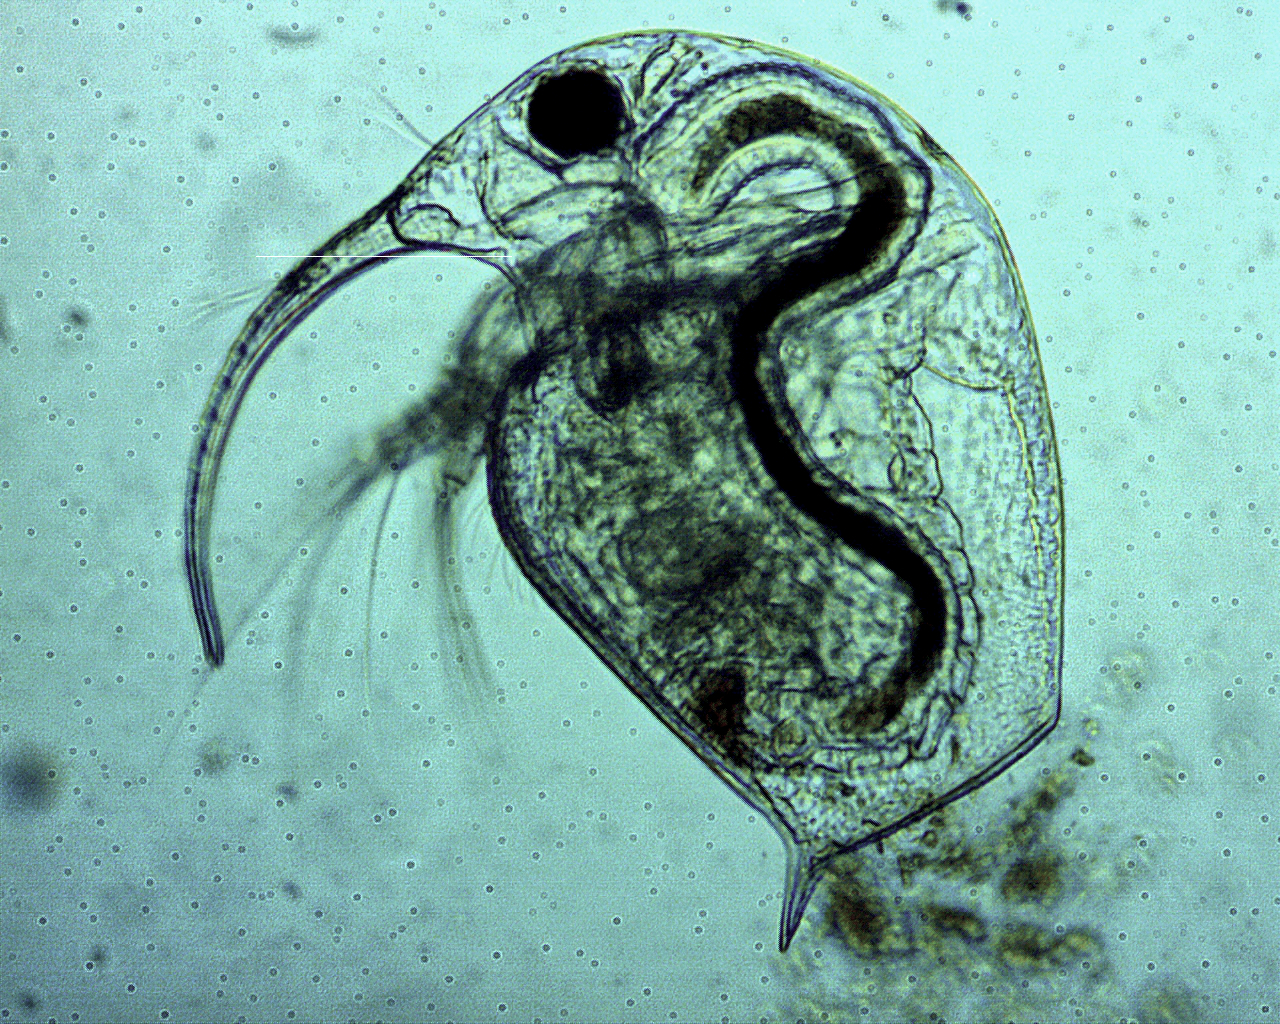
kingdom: Animalia
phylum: Arthropoda
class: Branchiopoda
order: Diplostraca
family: Bosminidae
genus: Bosmina
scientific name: Bosmina longirostris
